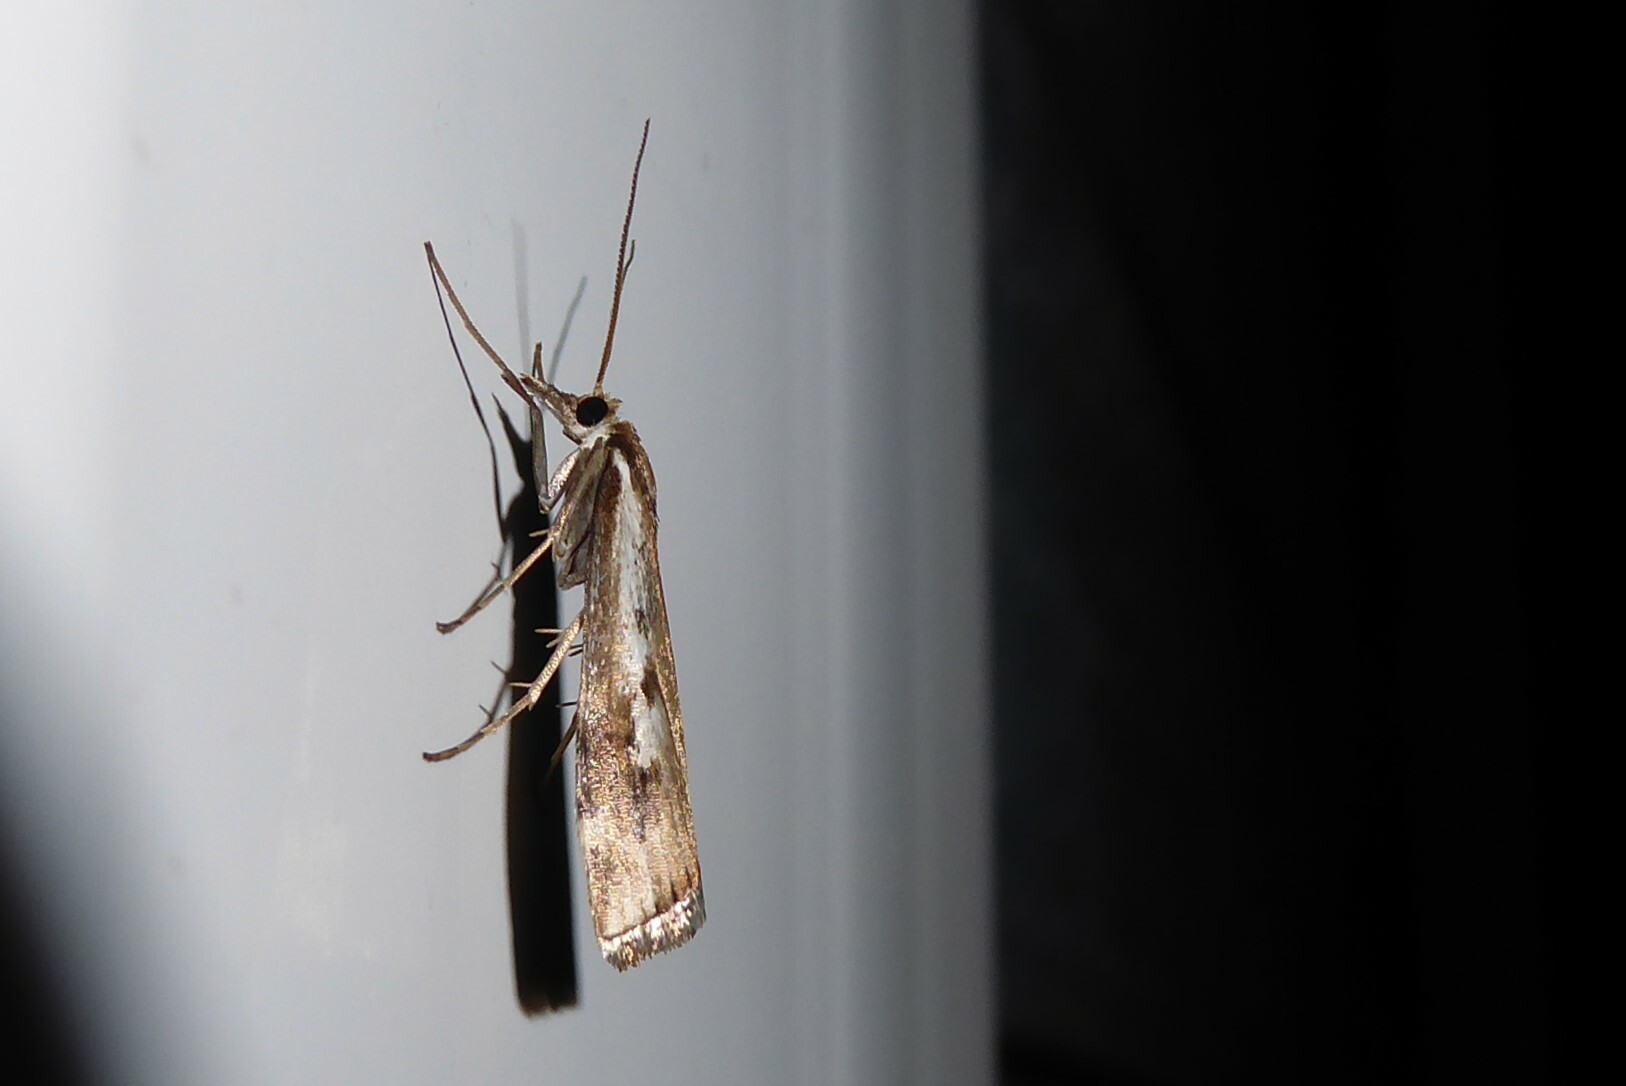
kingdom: Animalia
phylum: Arthropoda
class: Insecta
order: Lepidoptera
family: Crambidae
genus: Orocrambus
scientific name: Orocrambus vulgaris
